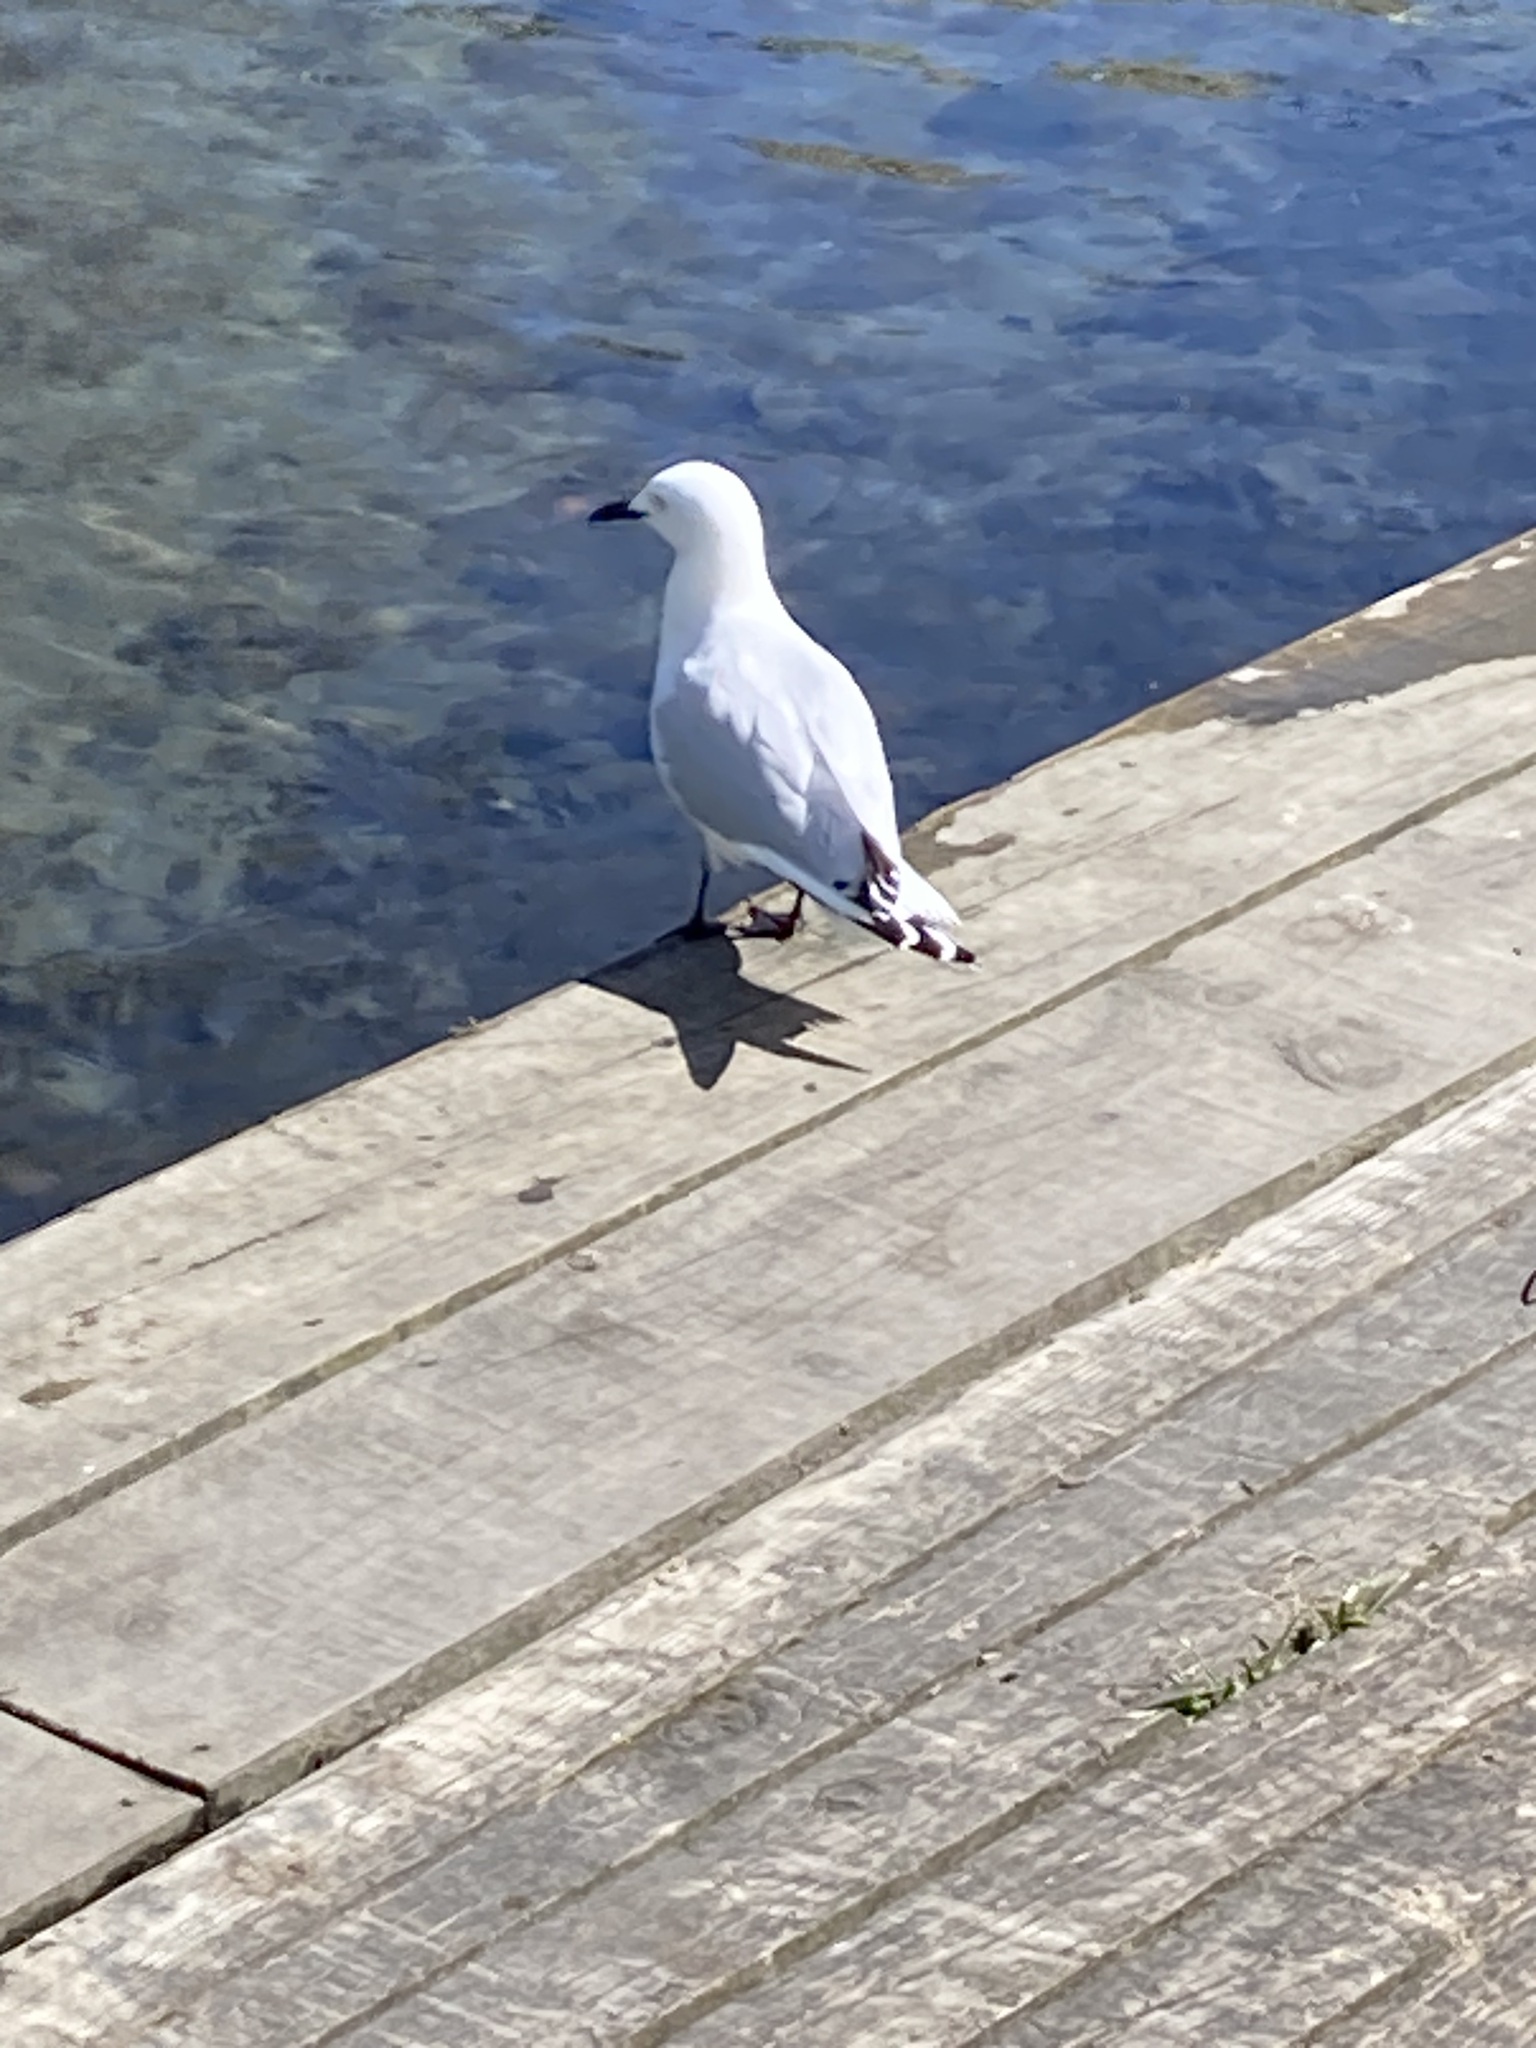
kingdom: Animalia
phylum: Chordata
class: Aves
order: Charadriiformes
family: Laridae
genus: Chroicocephalus
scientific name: Chroicocephalus bulleri
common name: Black-billed gull
